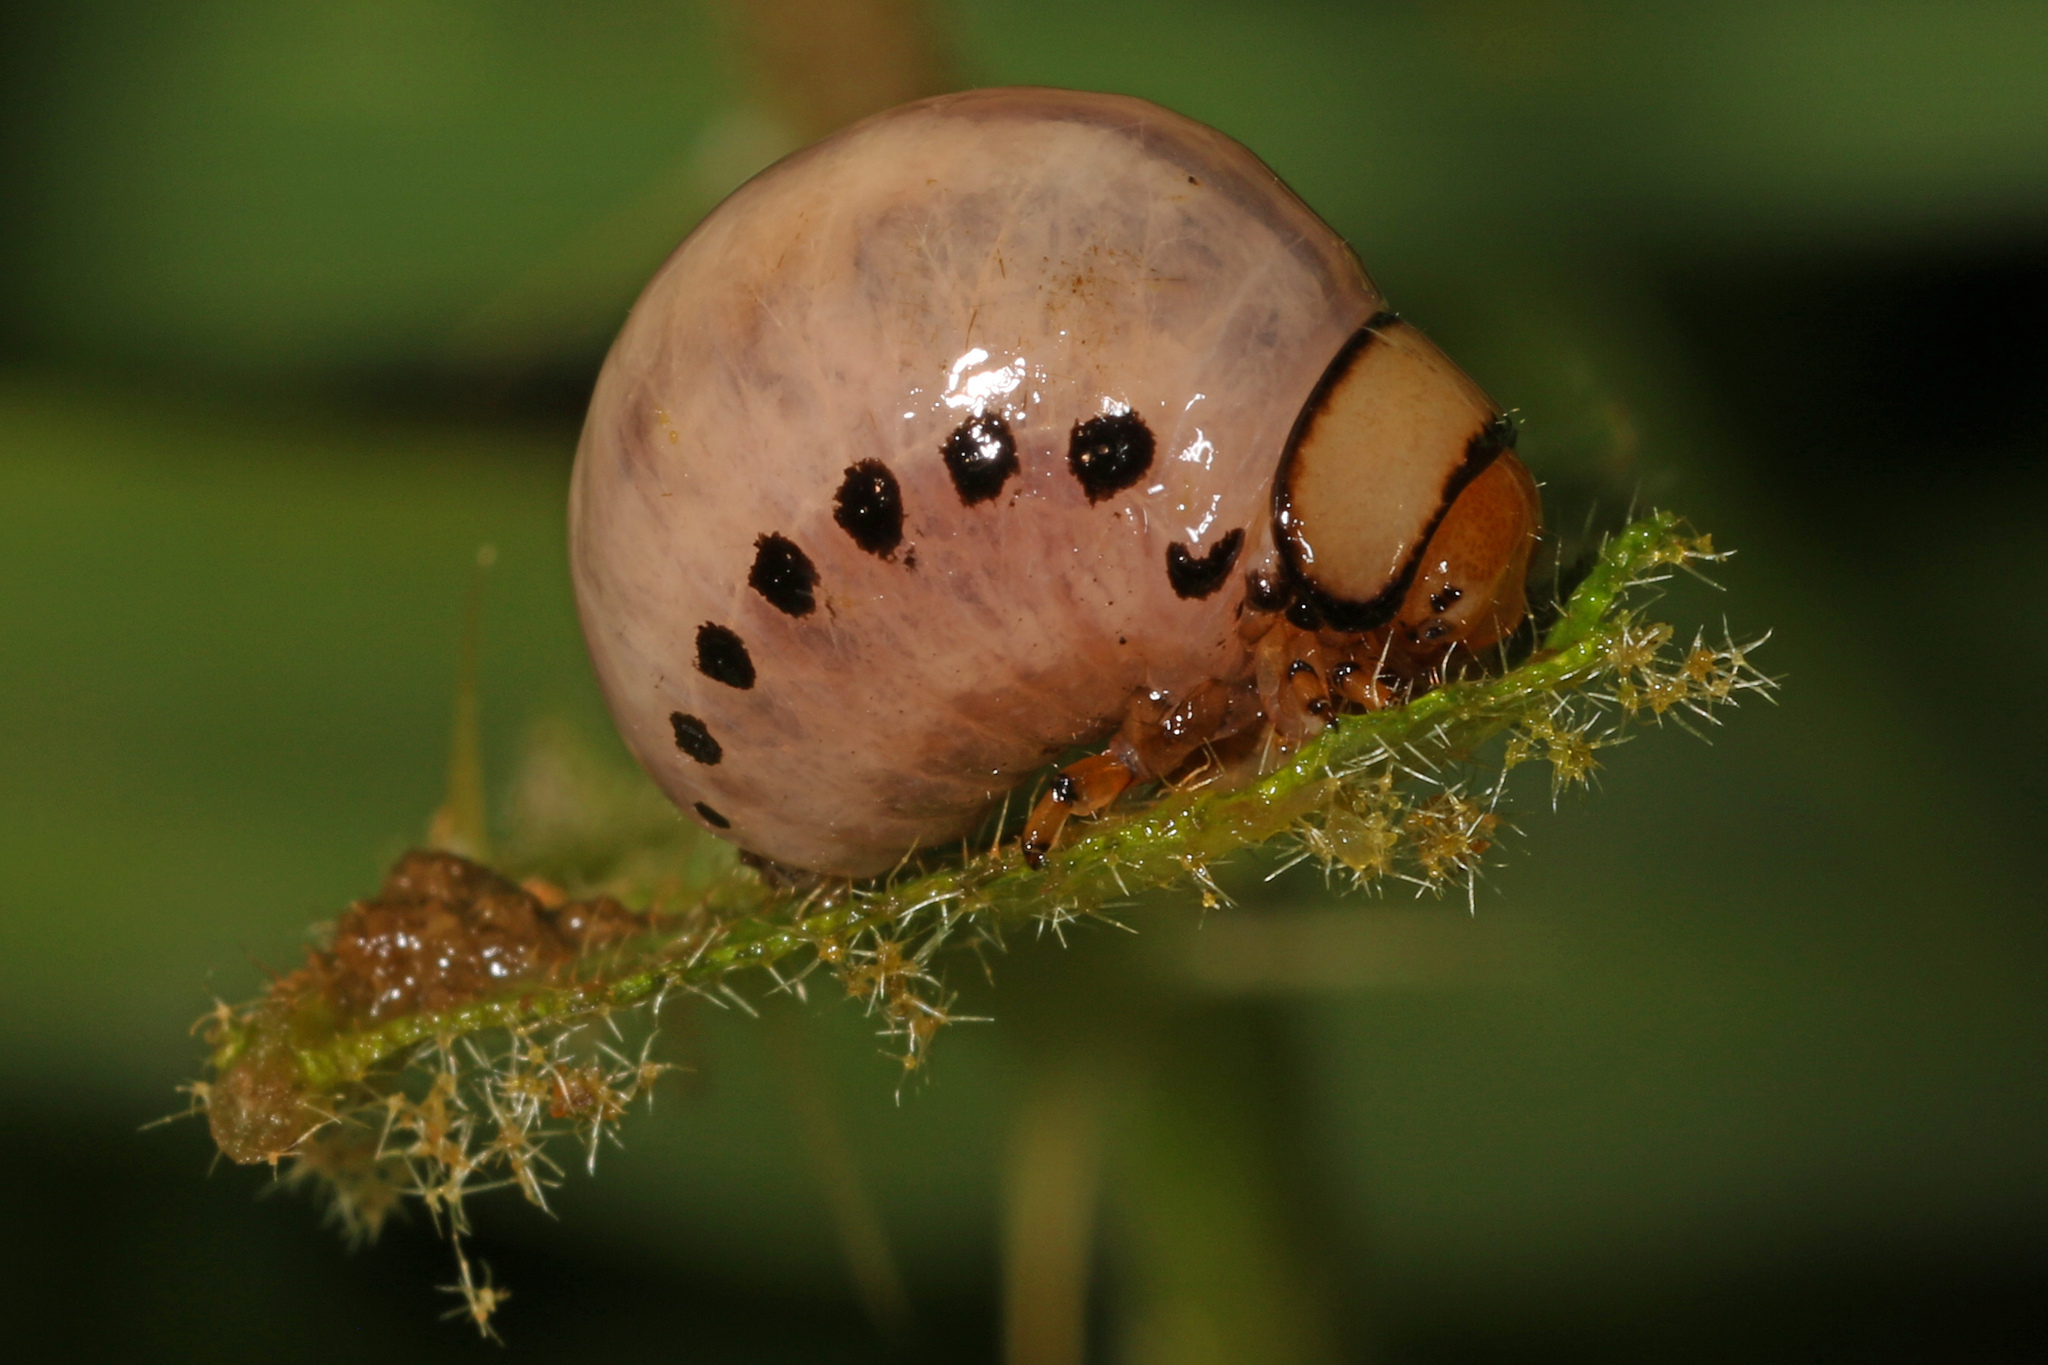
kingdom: Animalia
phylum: Arthropoda
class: Insecta
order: Coleoptera
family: Chrysomelidae
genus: Labidomera
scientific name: Labidomera clivicollis
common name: Swamp milkweed leaf beetle
